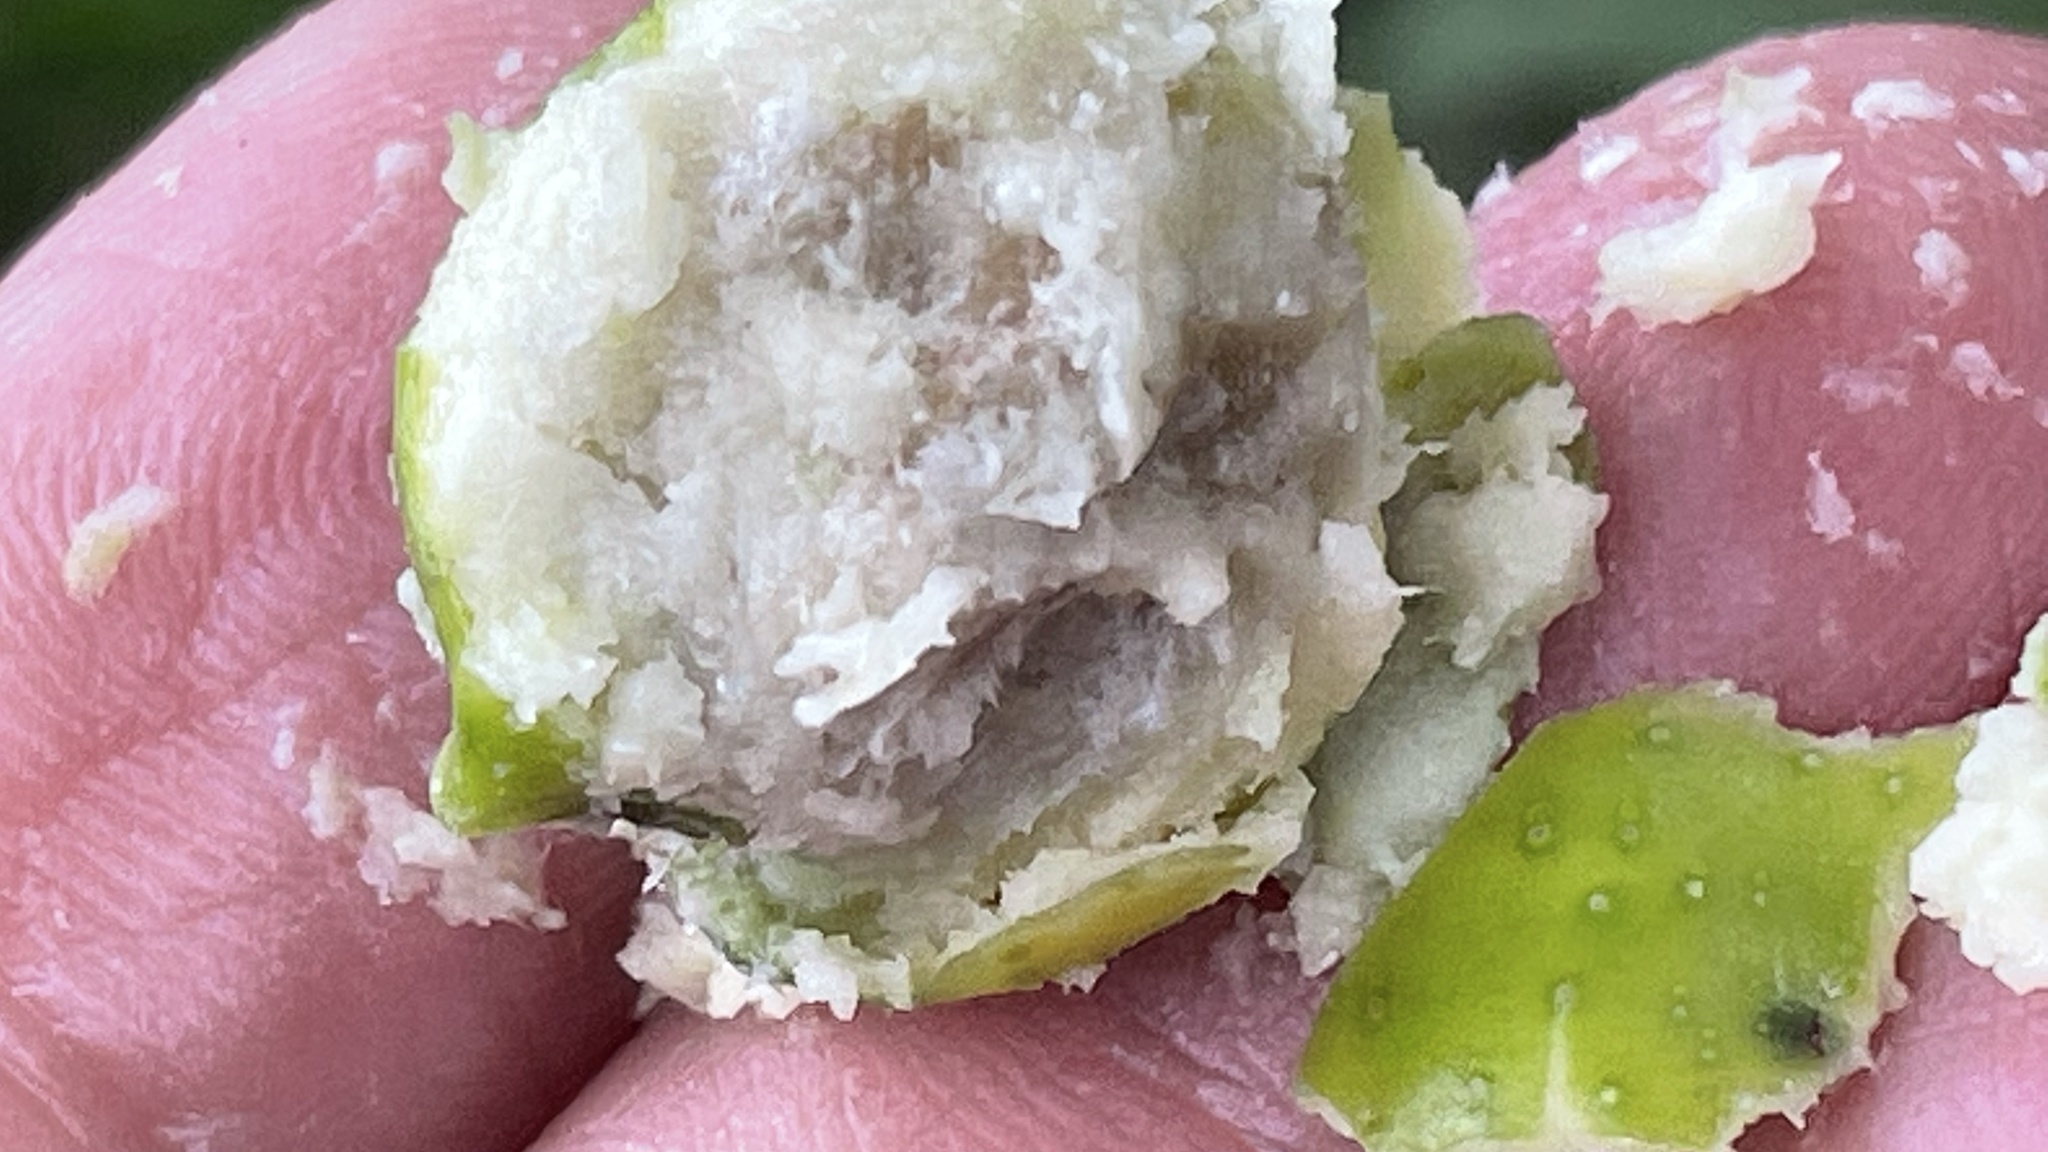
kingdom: Plantae
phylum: Tracheophyta
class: Magnoliopsida
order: Sapindales
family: Meliaceae
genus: Melia
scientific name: Melia azedarach
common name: Chinaberrytree
